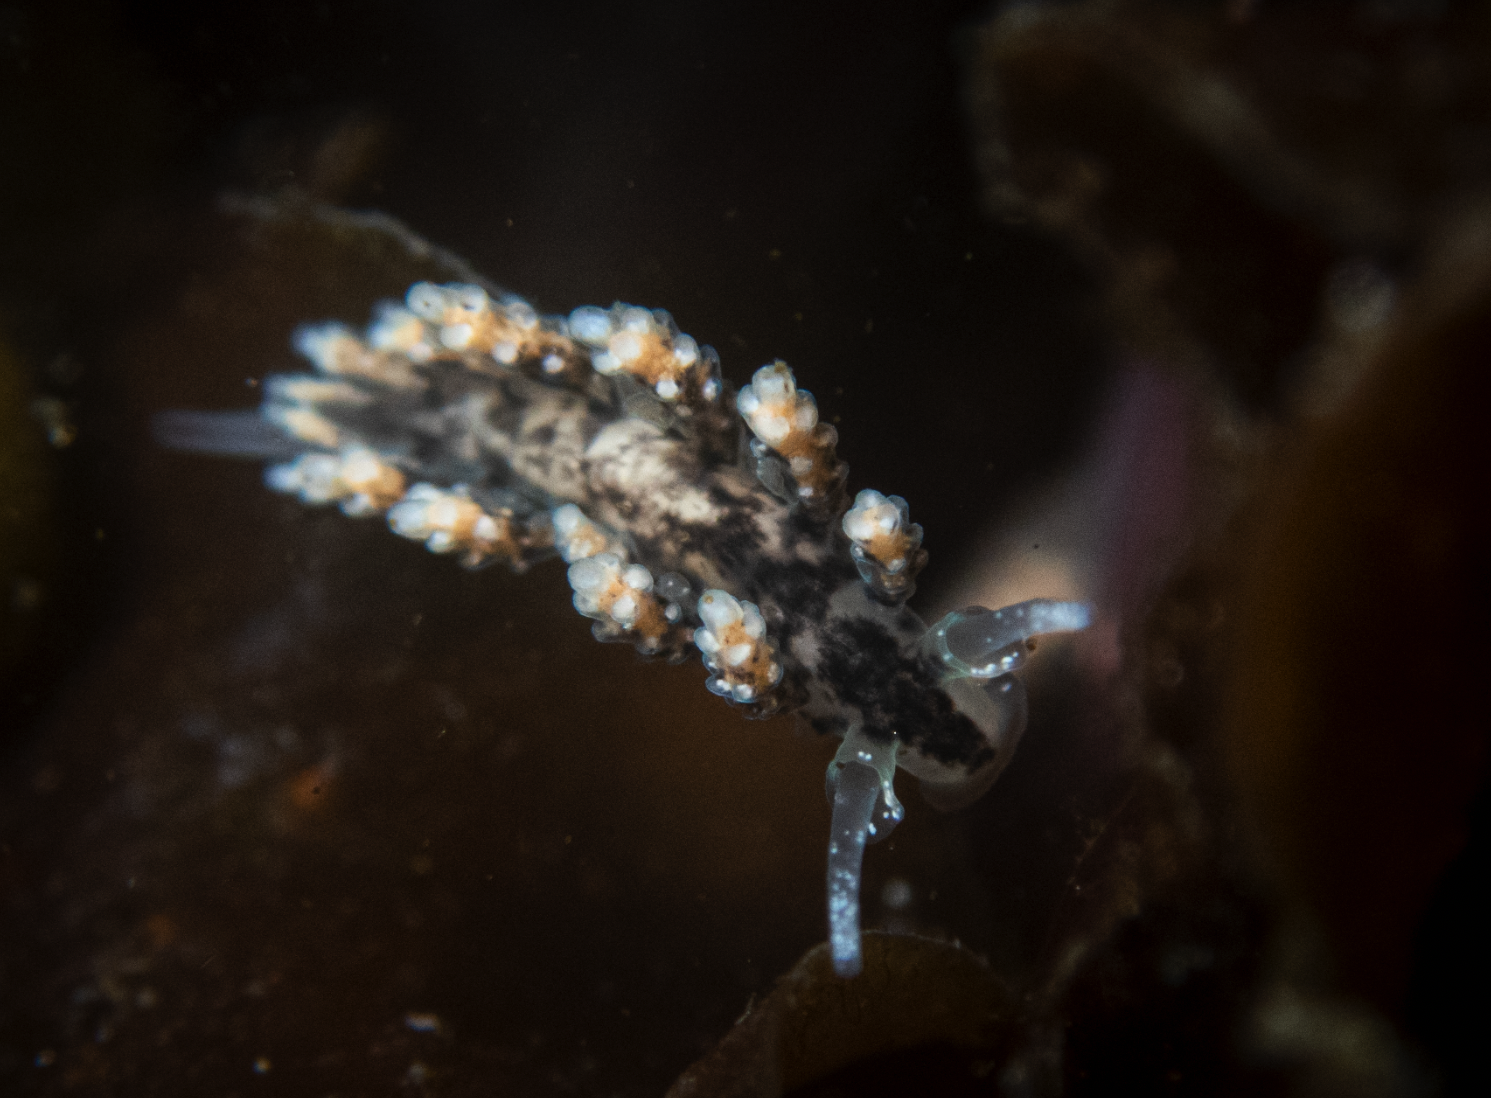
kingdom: Animalia
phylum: Mollusca
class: Gastropoda
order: Nudibranchia
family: Dotidae
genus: Doto
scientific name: Doto kya
